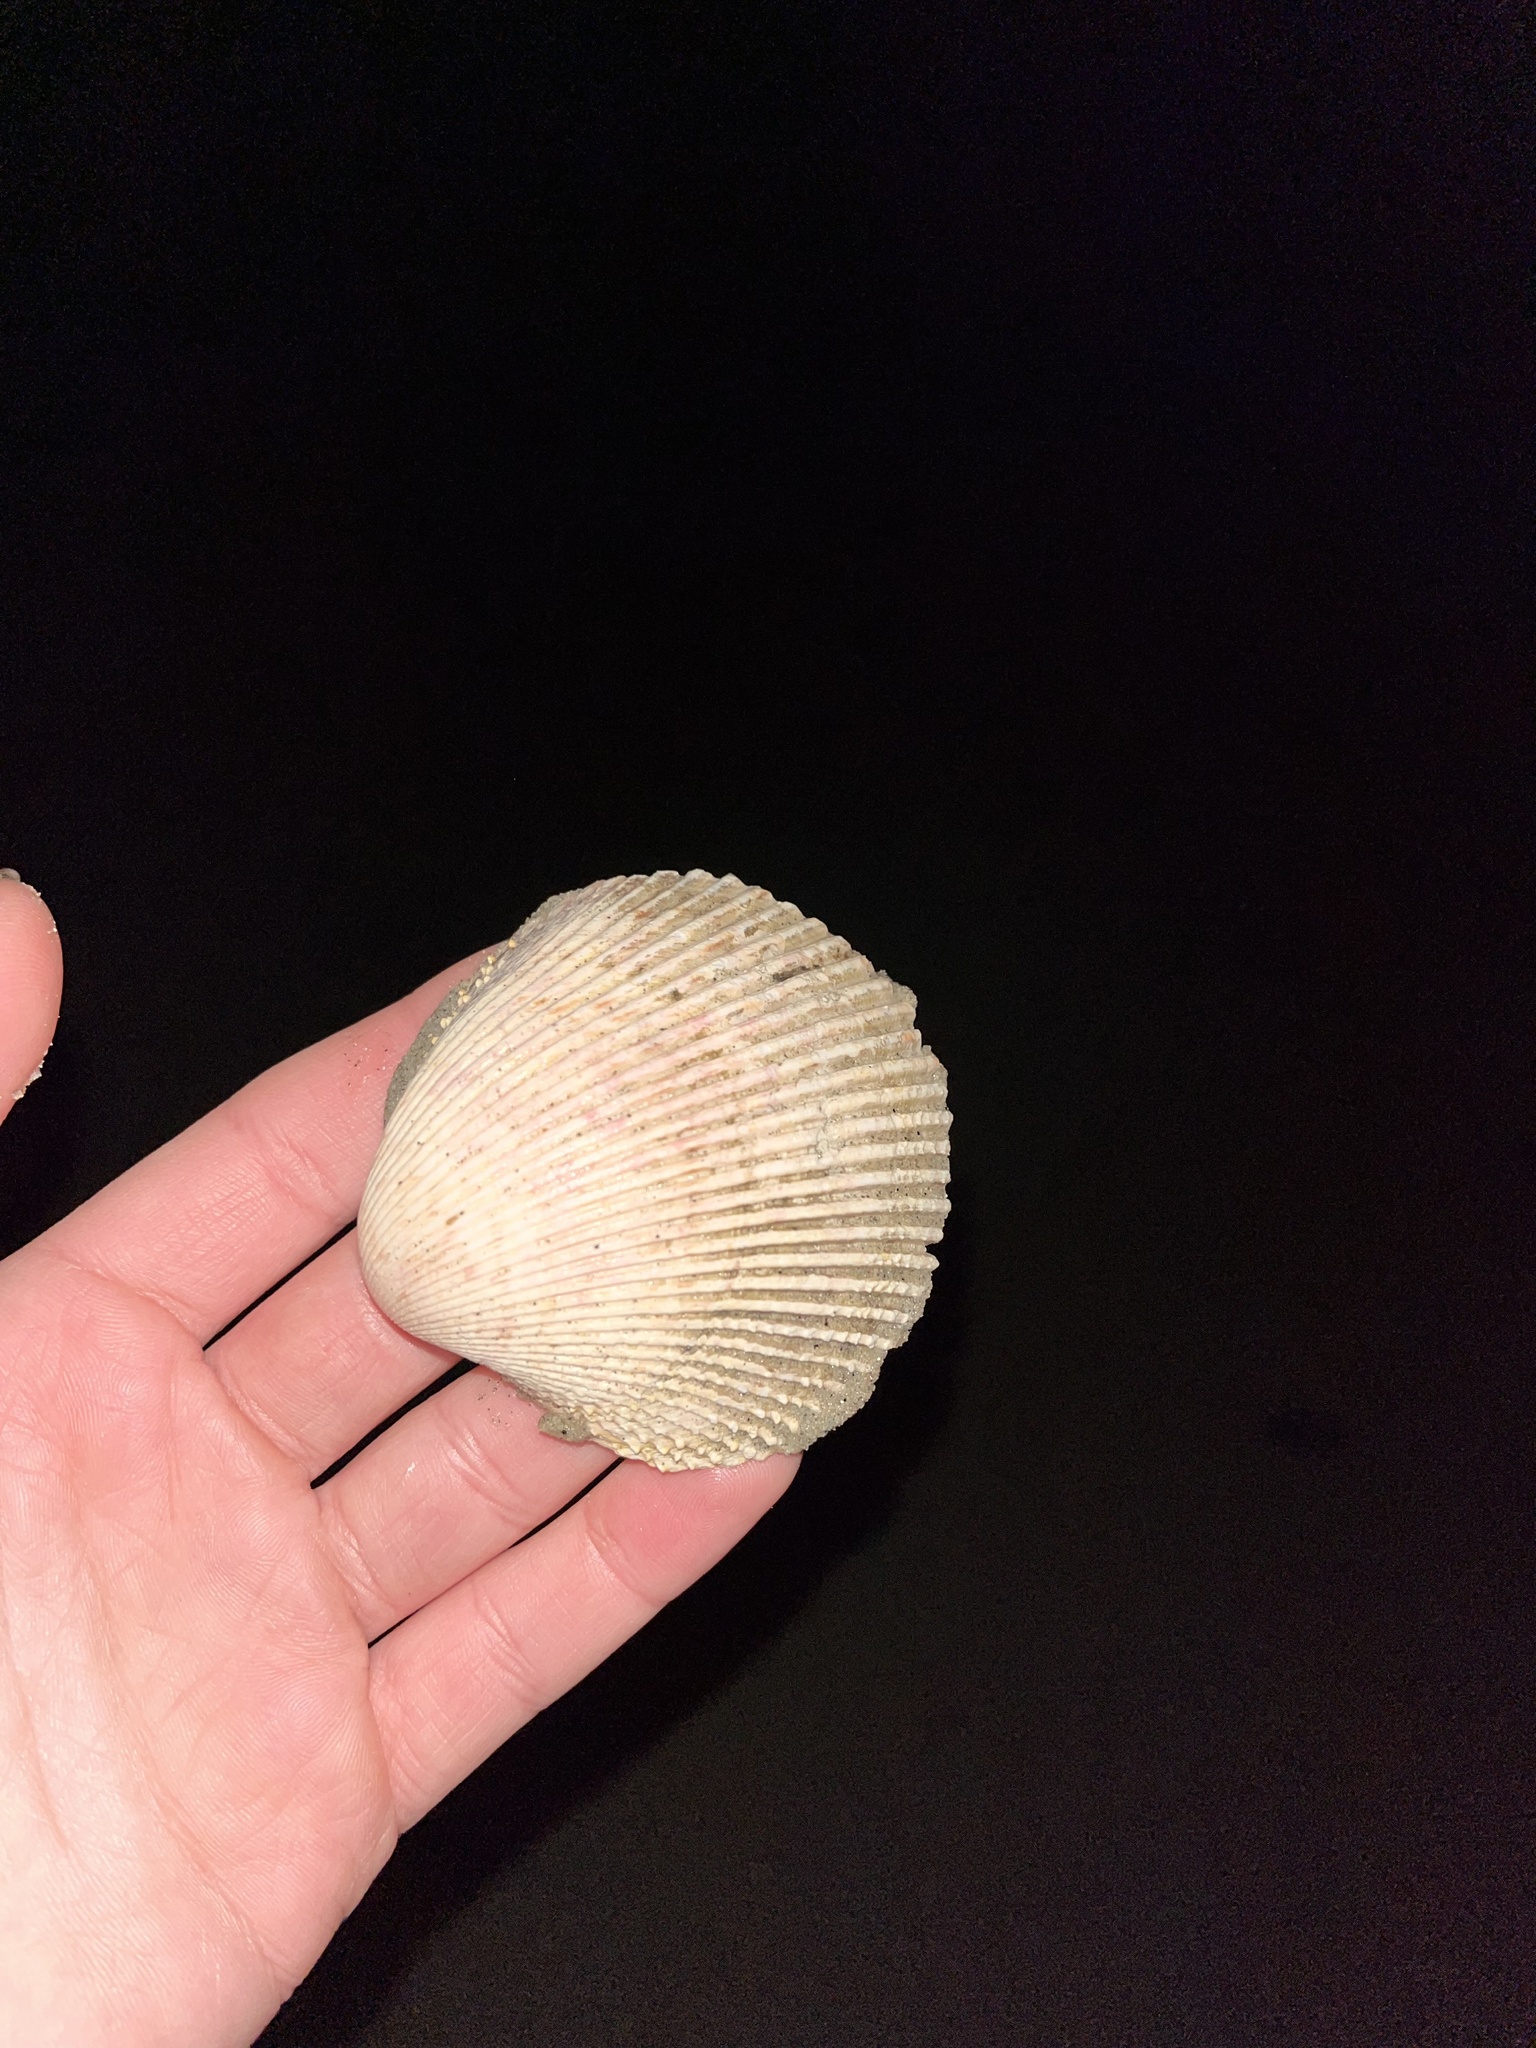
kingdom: Animalia
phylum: Mollusca
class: Bivalvia
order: Cardiida
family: Cardiidae
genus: Dallocardia
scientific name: Dallocardia quadragenaria
